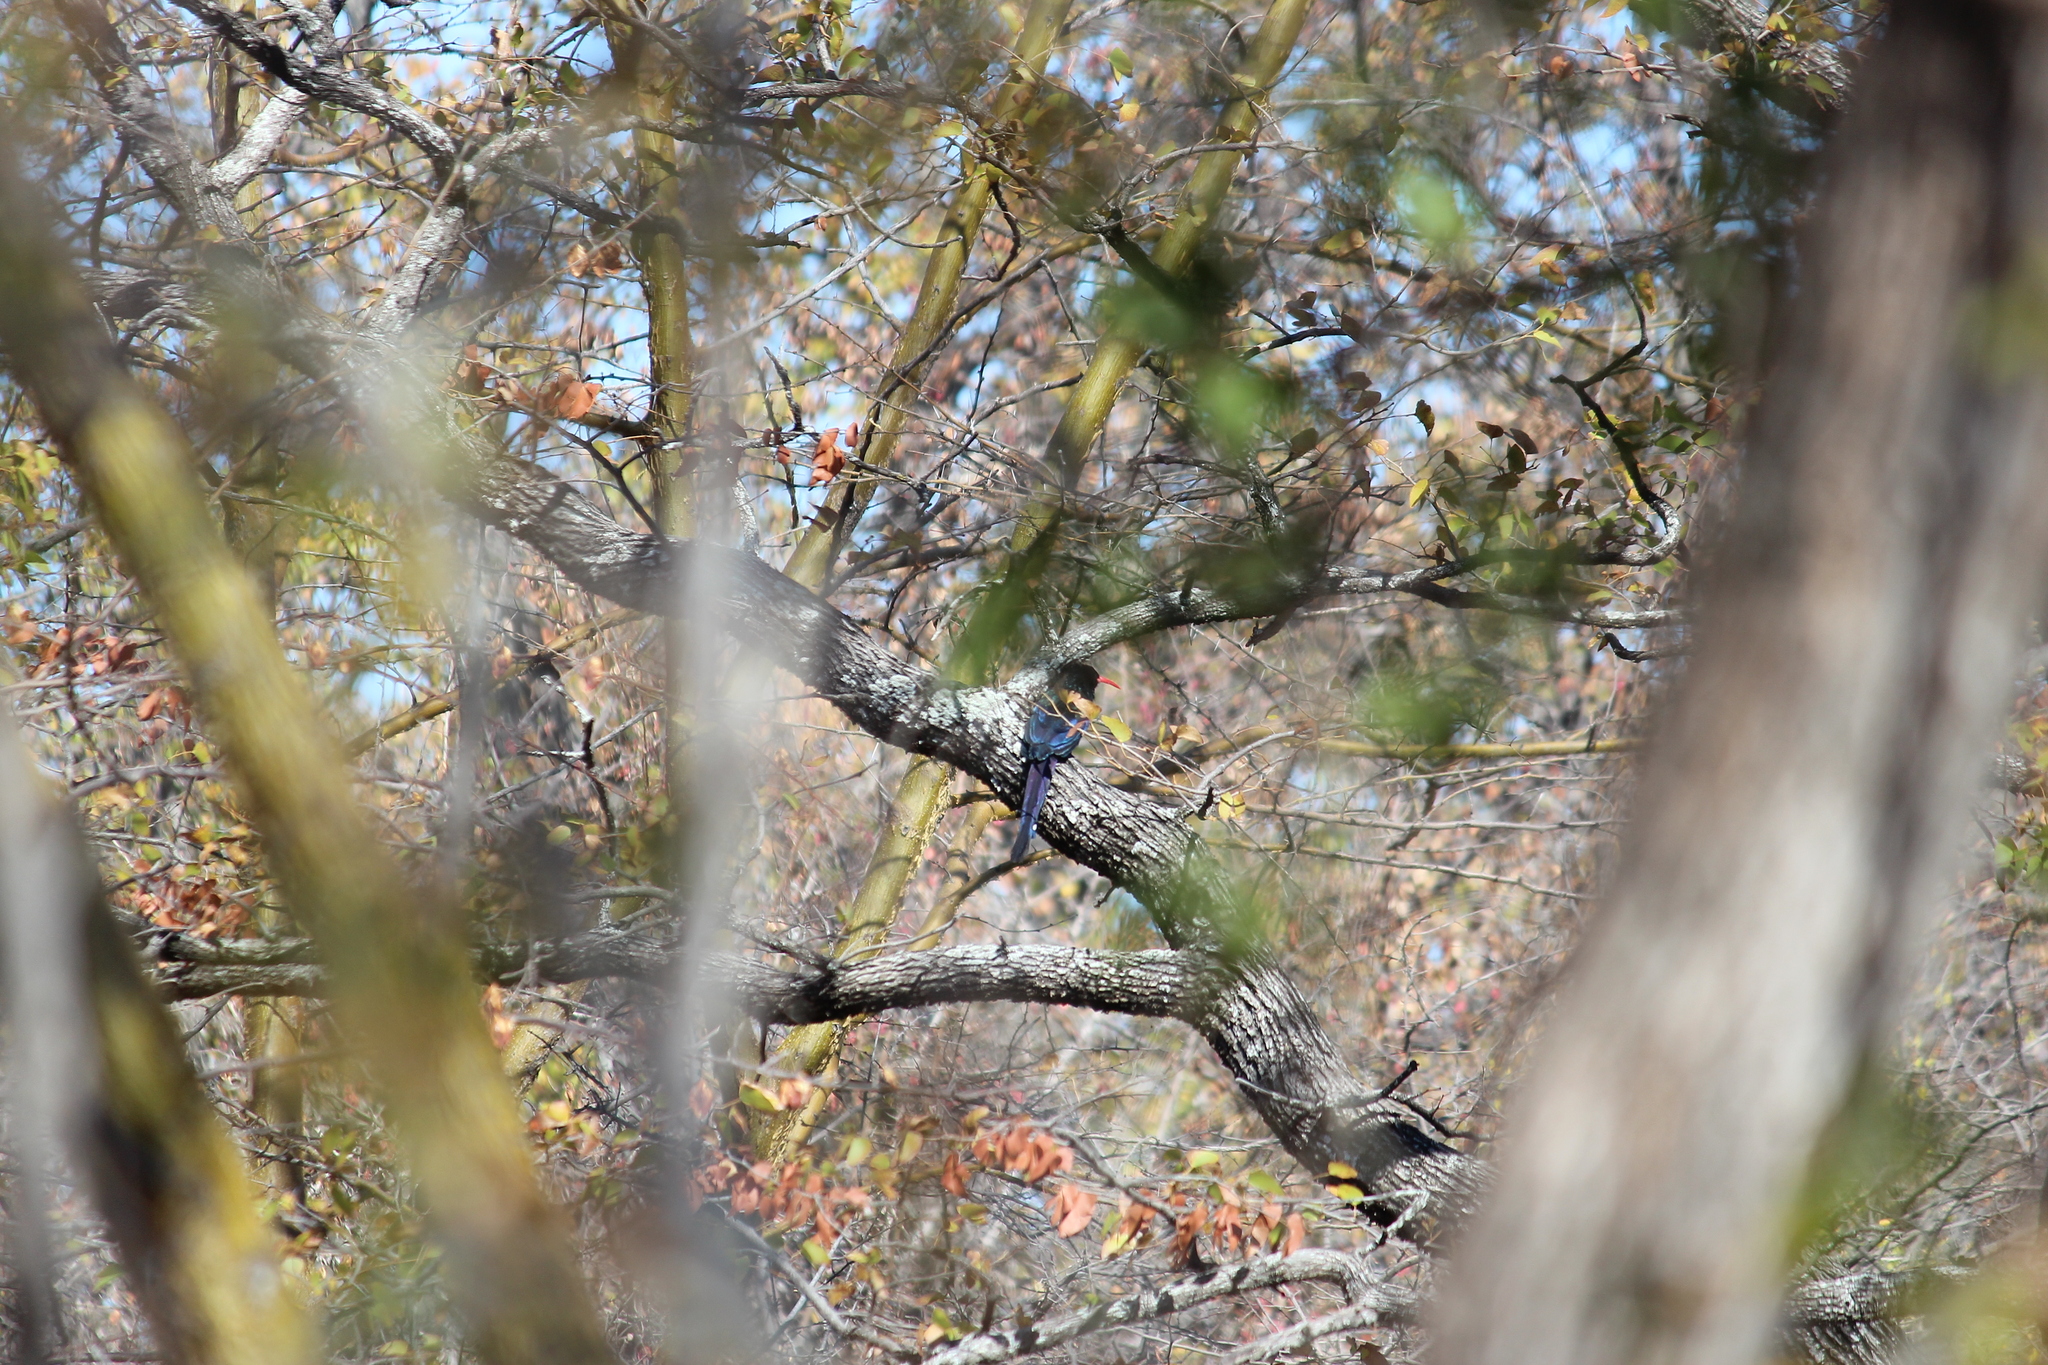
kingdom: Animalia
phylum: Chordata
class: Aves
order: Bucerotiformes
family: Phoeniculidae
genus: Phoeniculus
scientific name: Phoeniculus purpureus
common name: Green woodhoopoe
